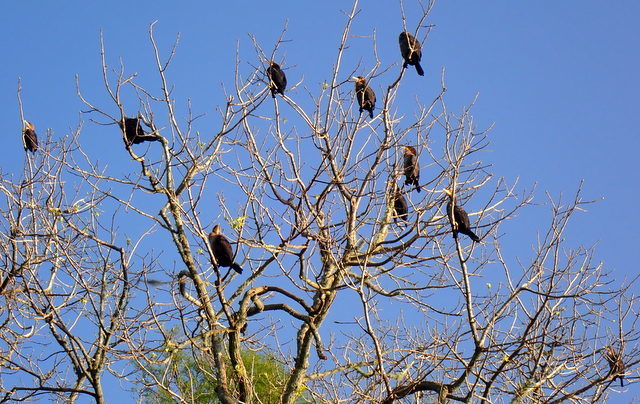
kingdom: Animalia
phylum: Chordata
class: Aves
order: Suliformes
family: Phalacrocoracidae
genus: Phalacrocorax
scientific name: Phalacrocorax auritus
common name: Double-crested cormorant
